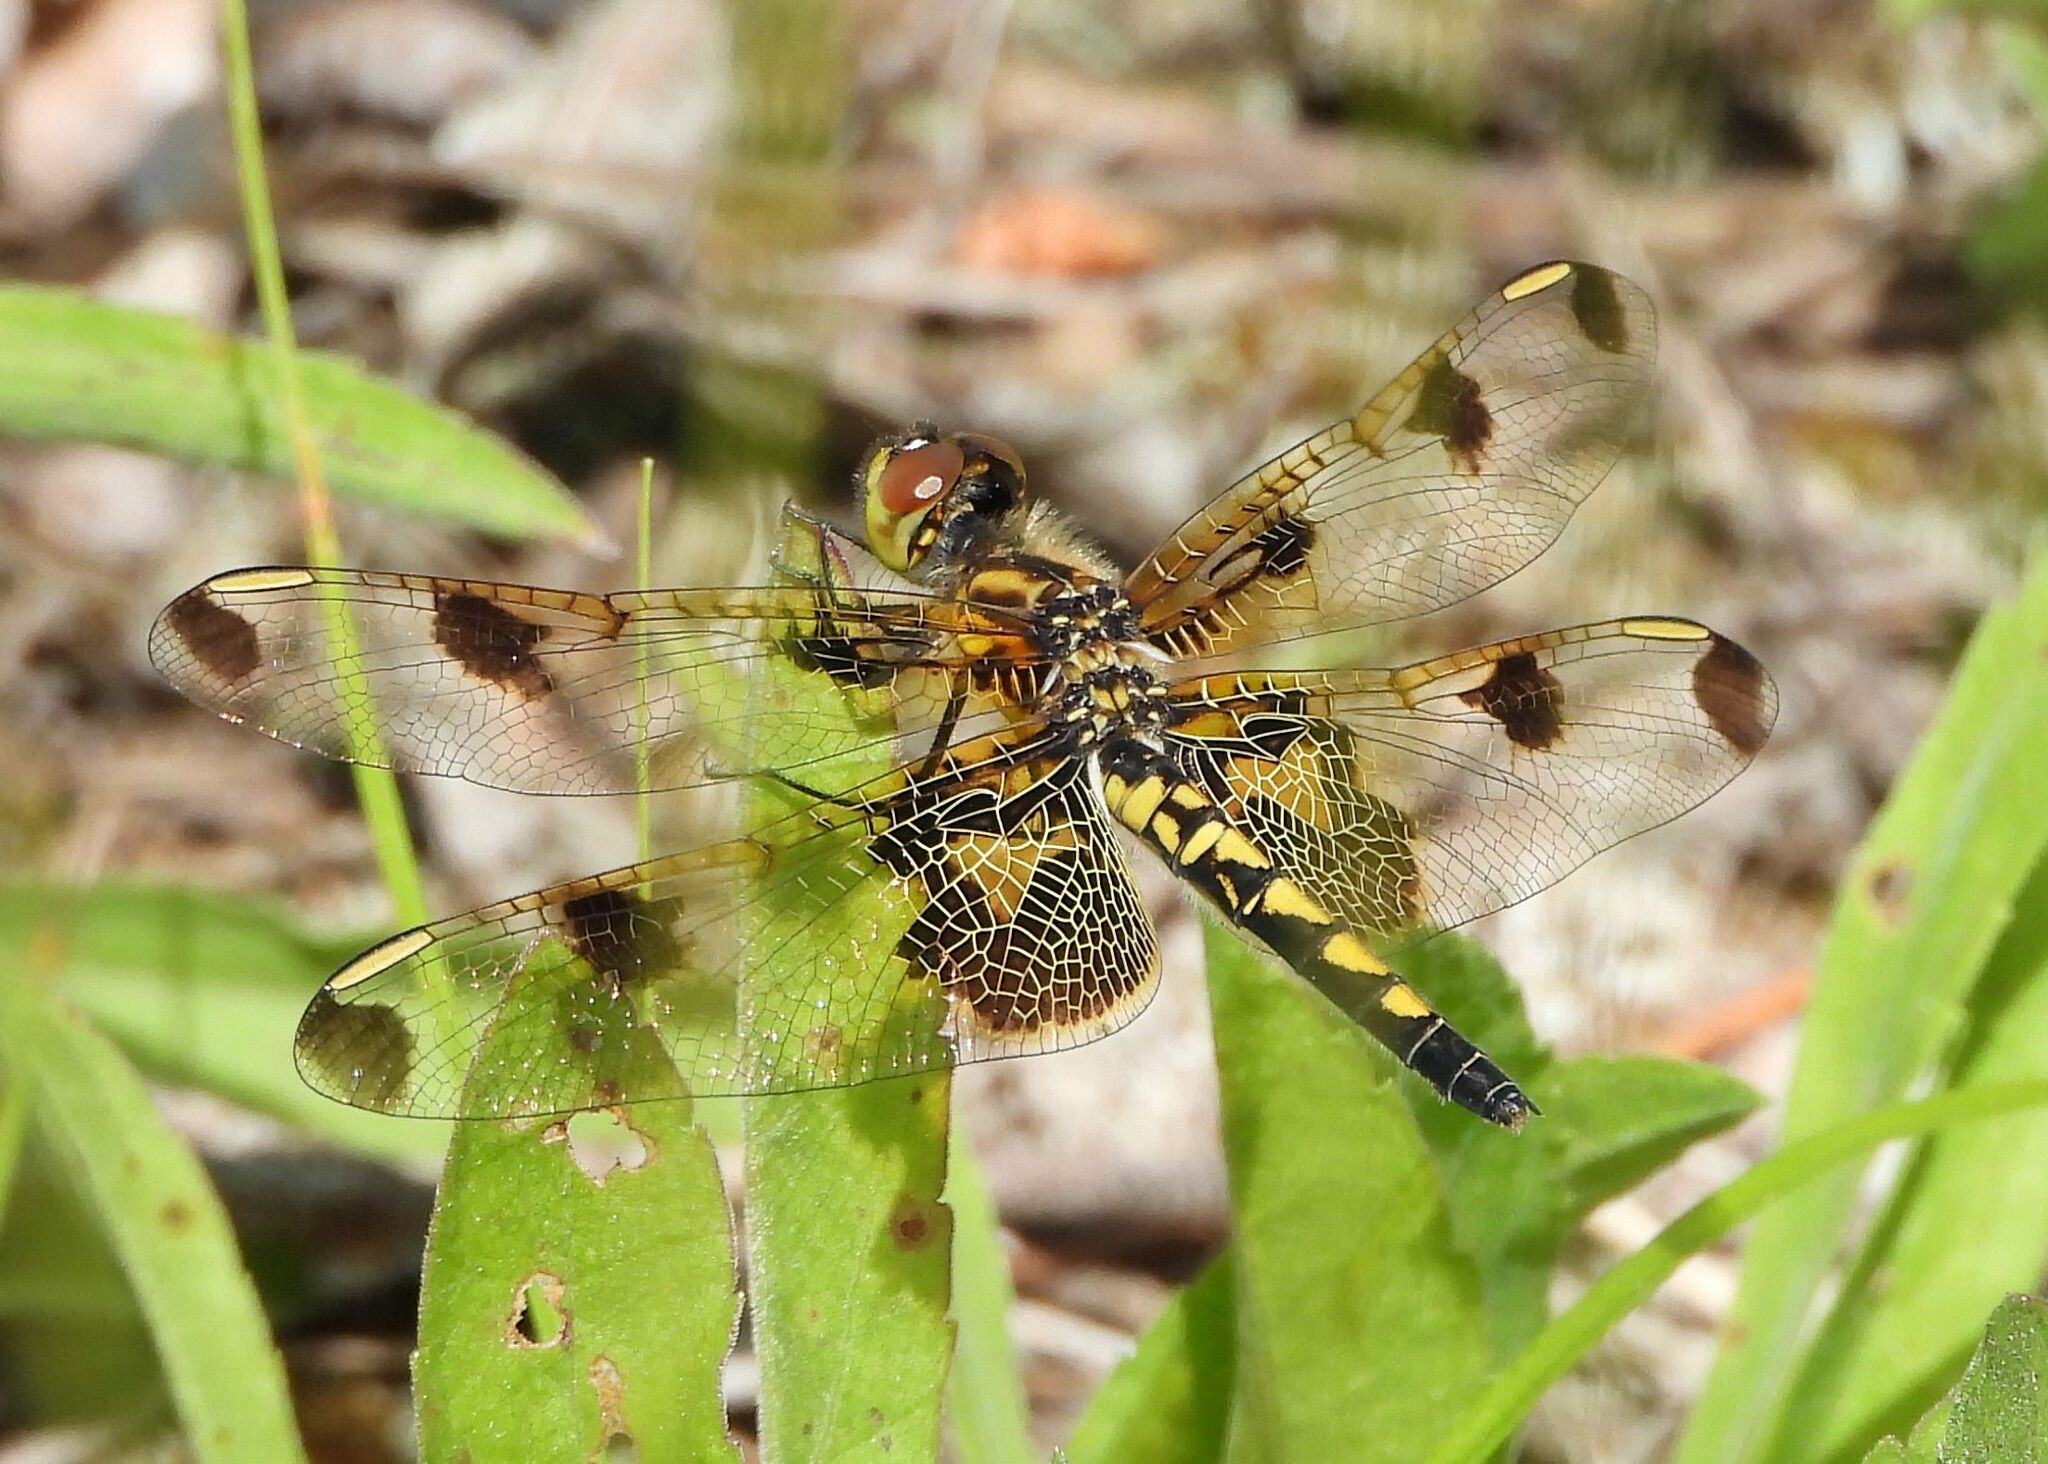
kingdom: Animalia
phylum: Arthropoda
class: Insecta
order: Odonata
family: Libellulidae
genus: Celithemis
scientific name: Celithemis elisa
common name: Calico pennant
